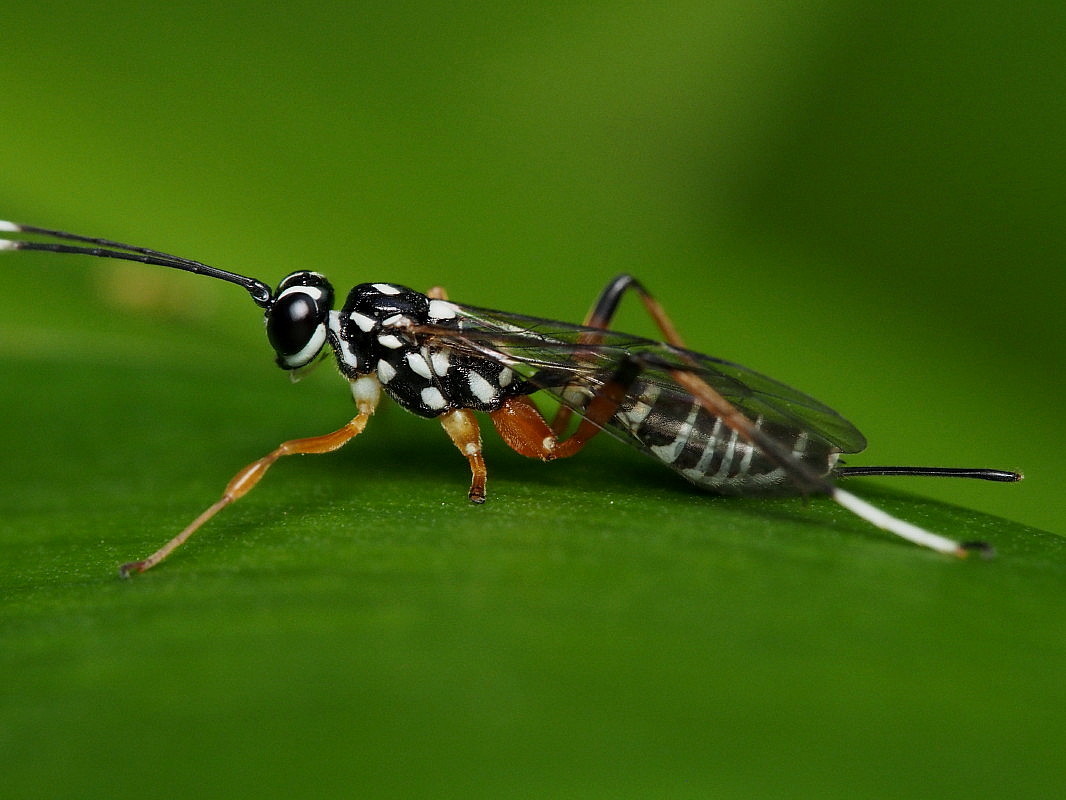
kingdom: Animalia
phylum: Arthropoda
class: Insecta
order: Hymenoptera
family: Ichneumonidae
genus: Xanthocryptus
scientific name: Xanthocryptus novozealandicus
